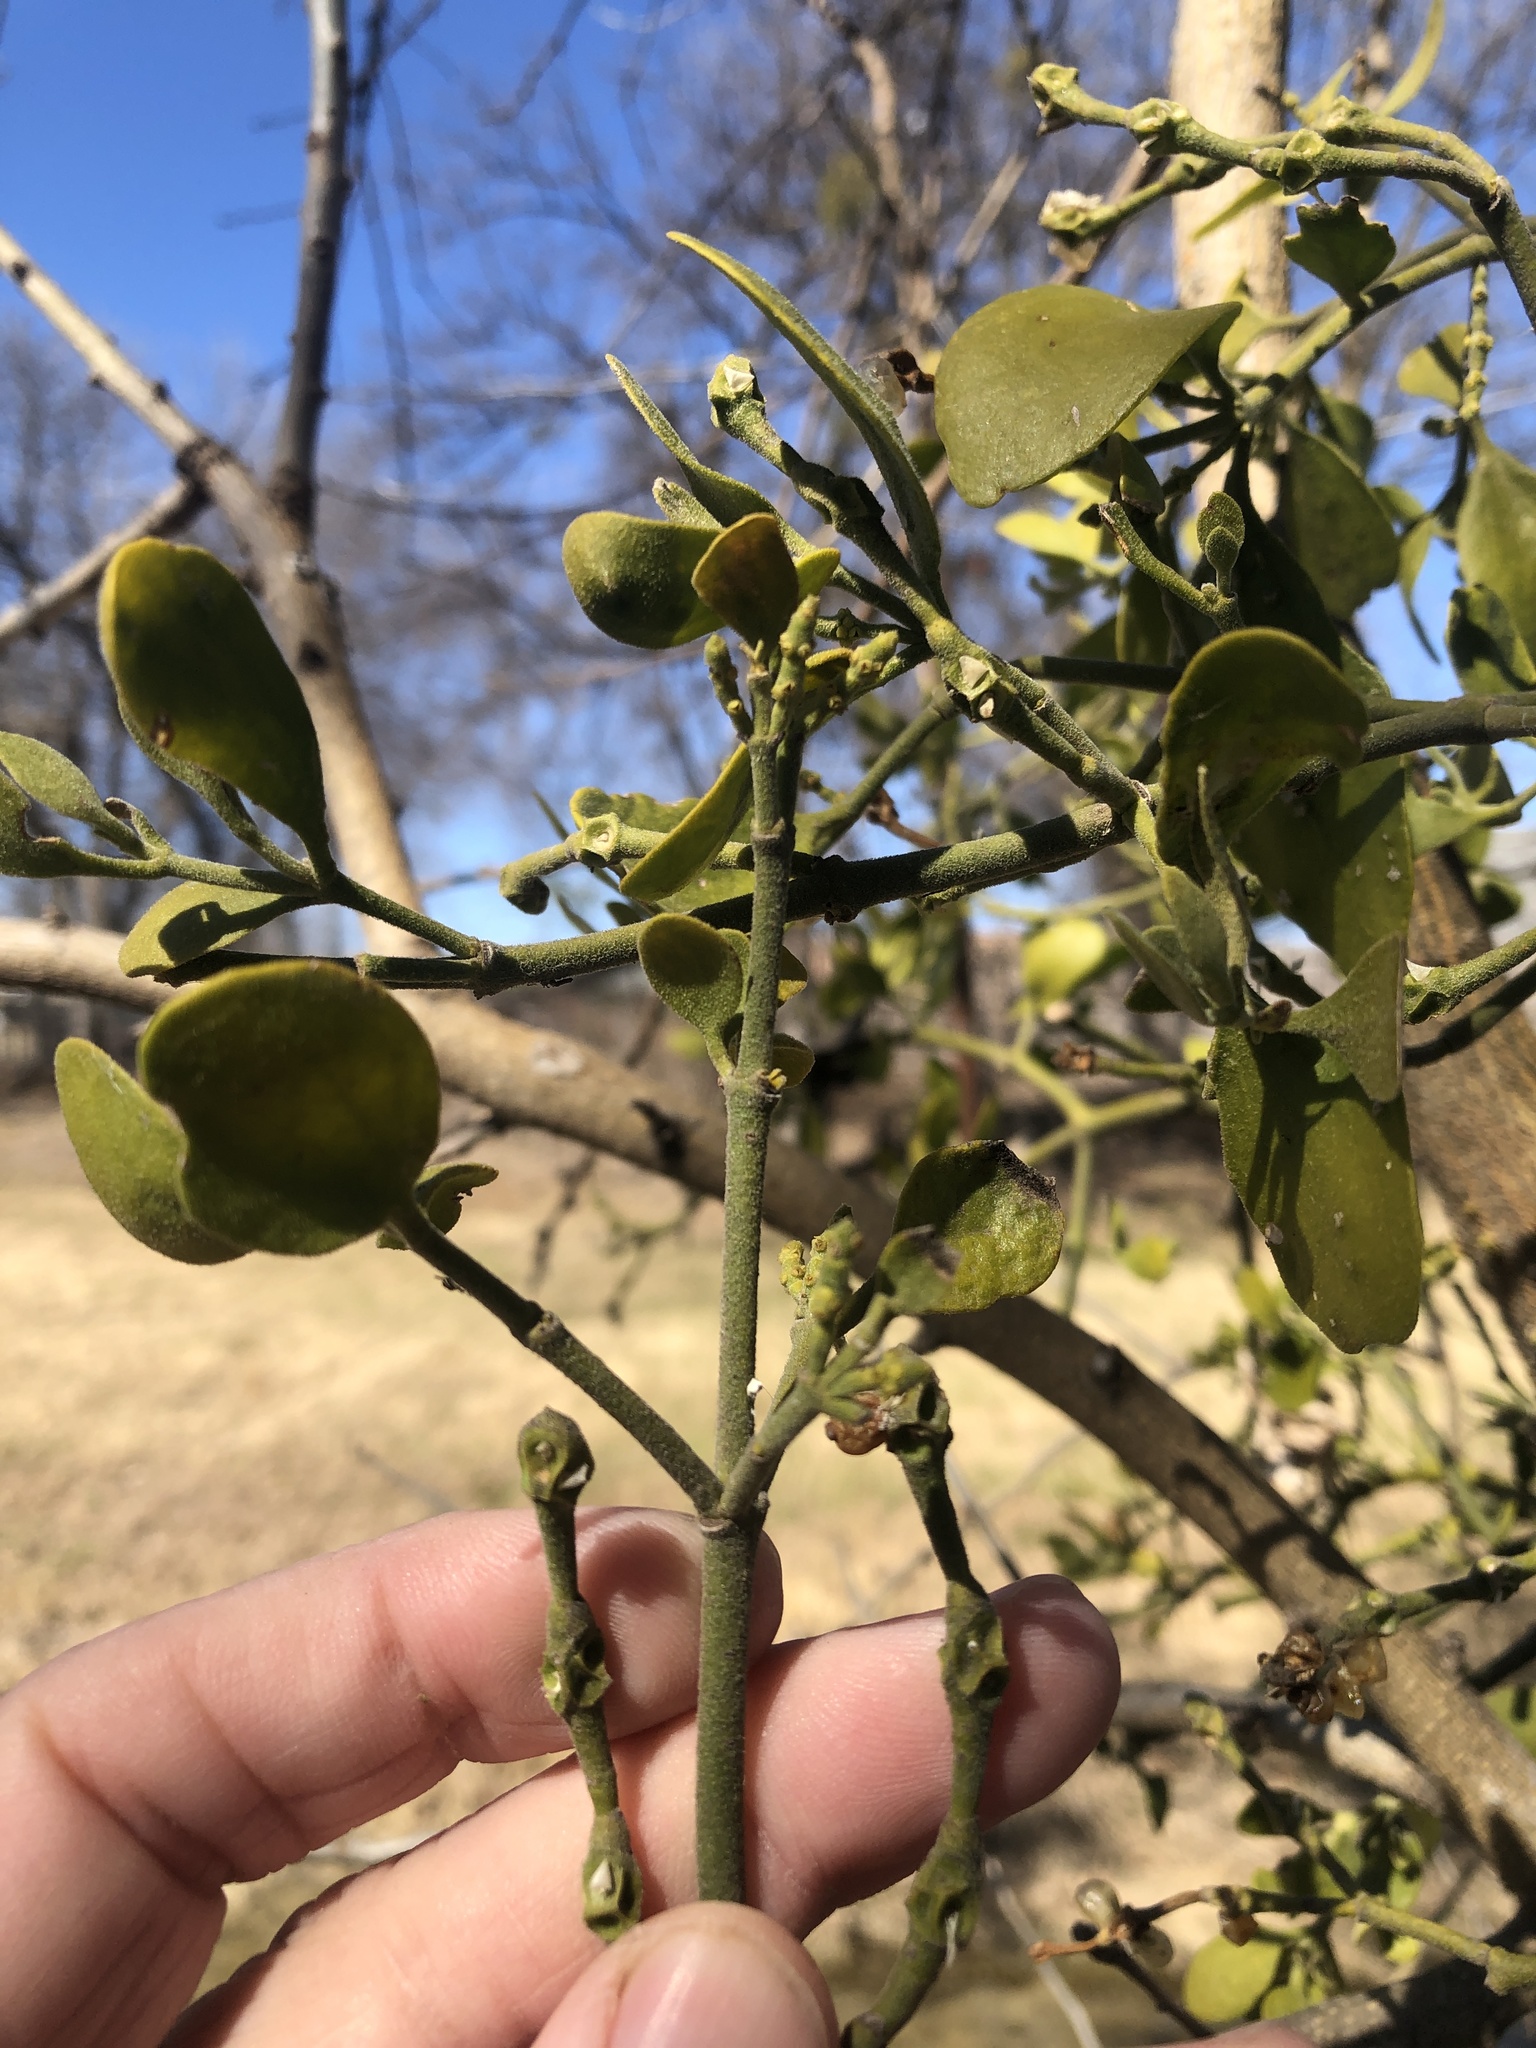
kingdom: Plantae
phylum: Tracheophyta
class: Magnoliopsida
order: Santalales
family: Viscaceae
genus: Phoradendron
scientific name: Phoradendron leucarpum
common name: Pacific mistletoe
